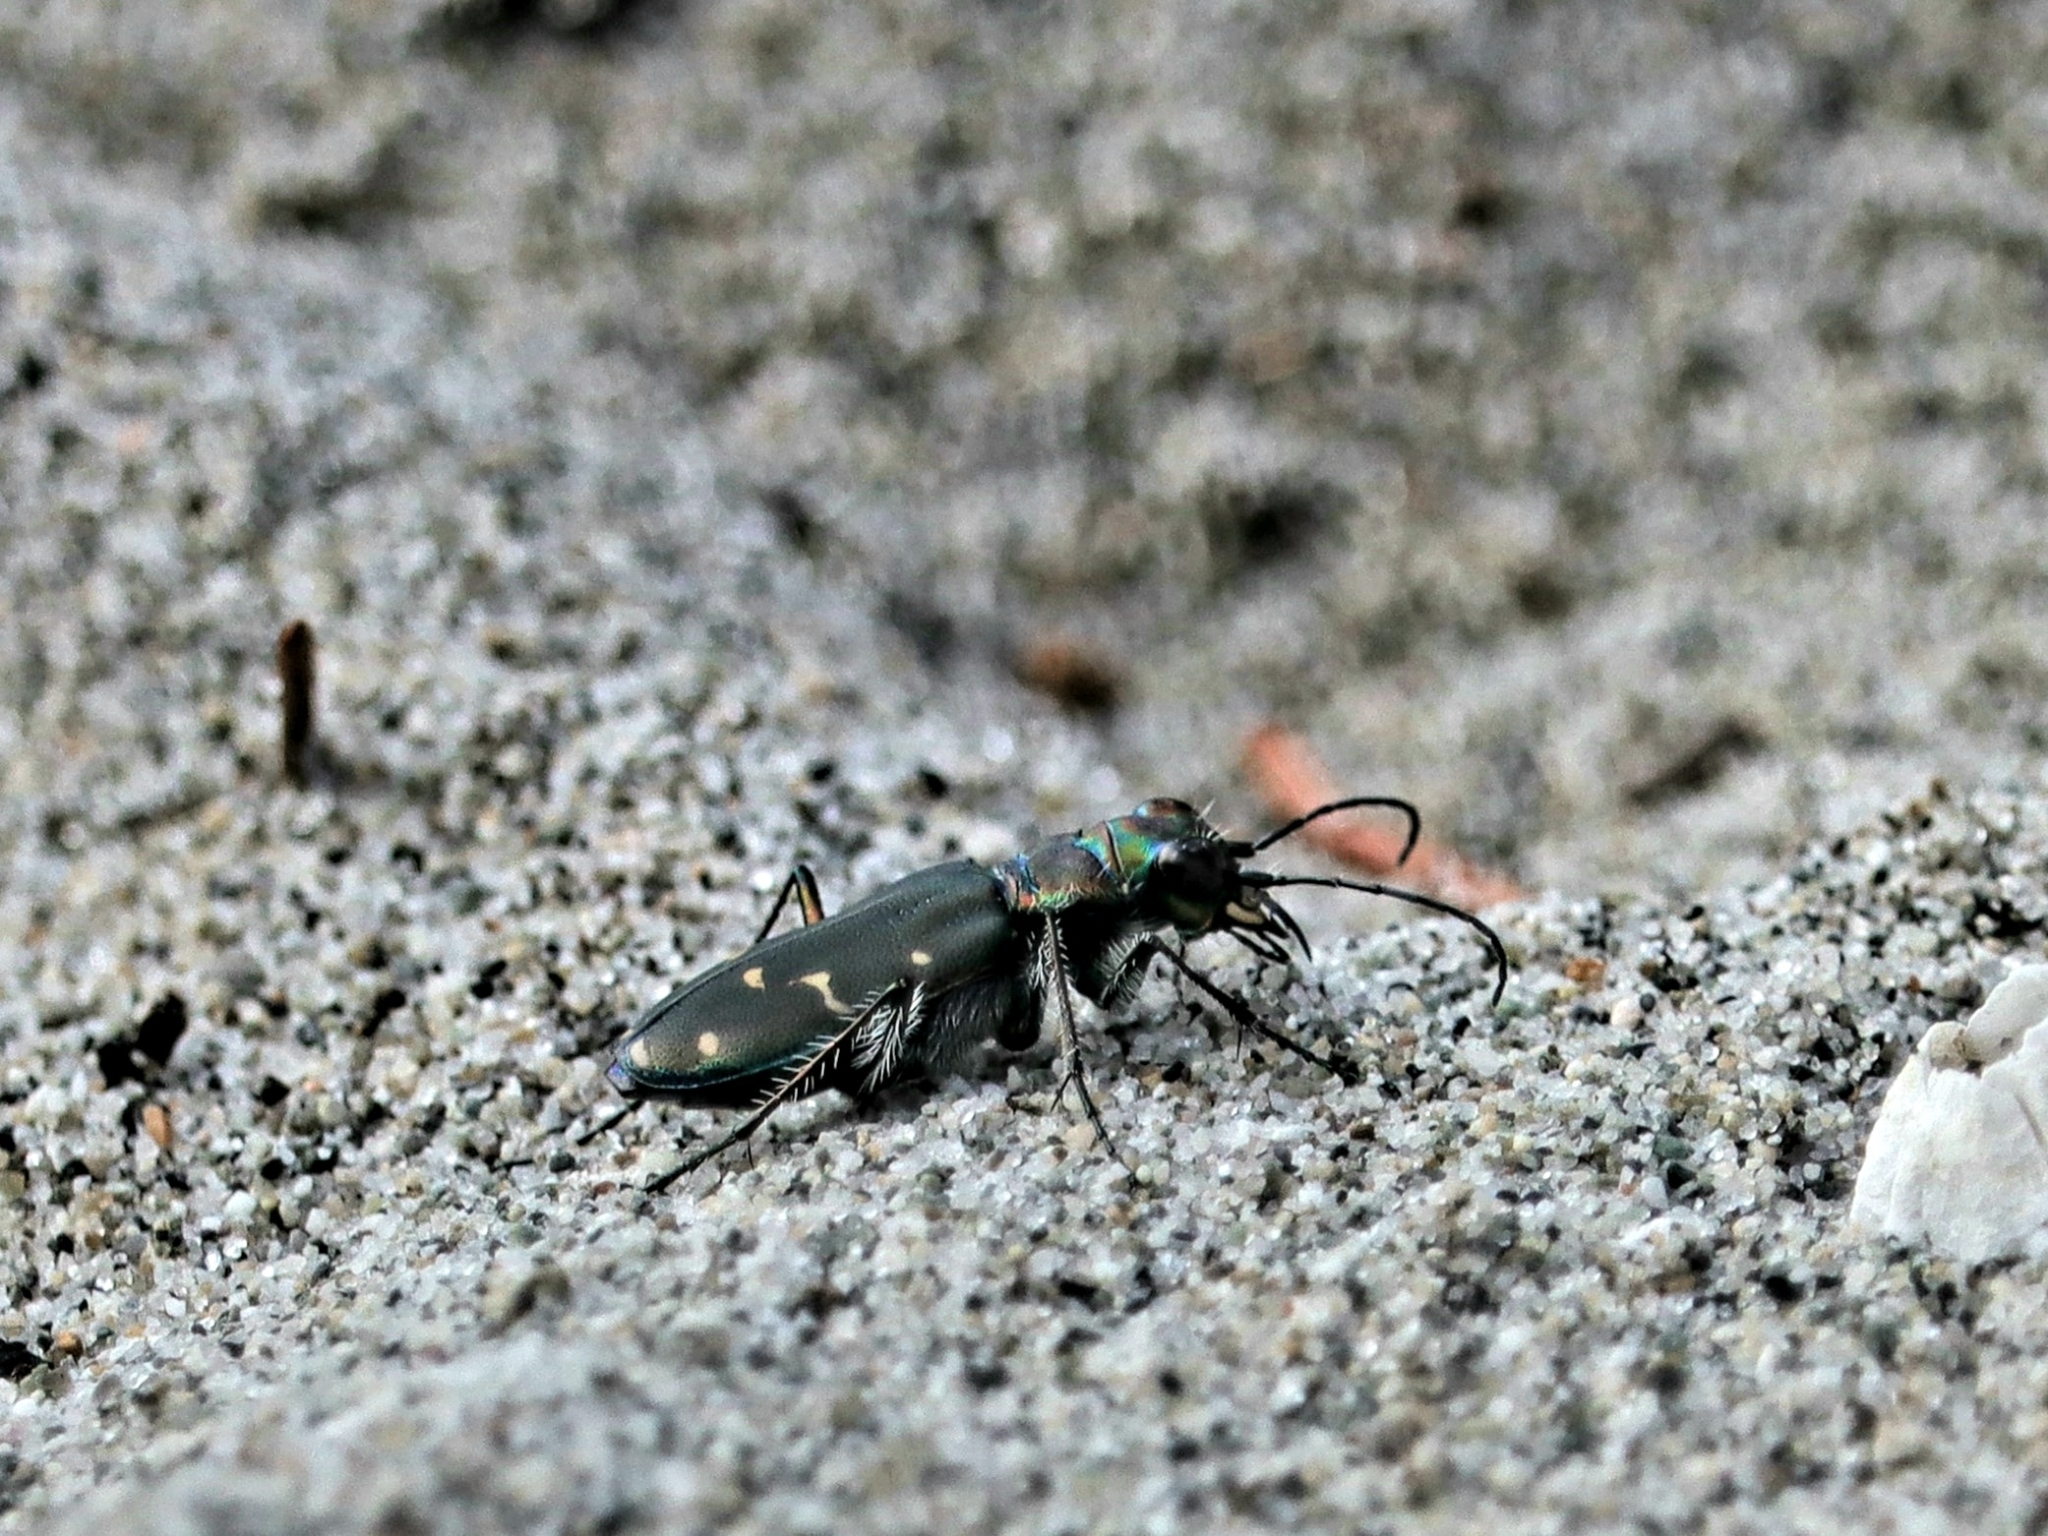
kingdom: Animalia
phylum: Arthropoda
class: Insecta
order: Coleoptera
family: Carabidae
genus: Cicindela
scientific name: Cicindela oregona
